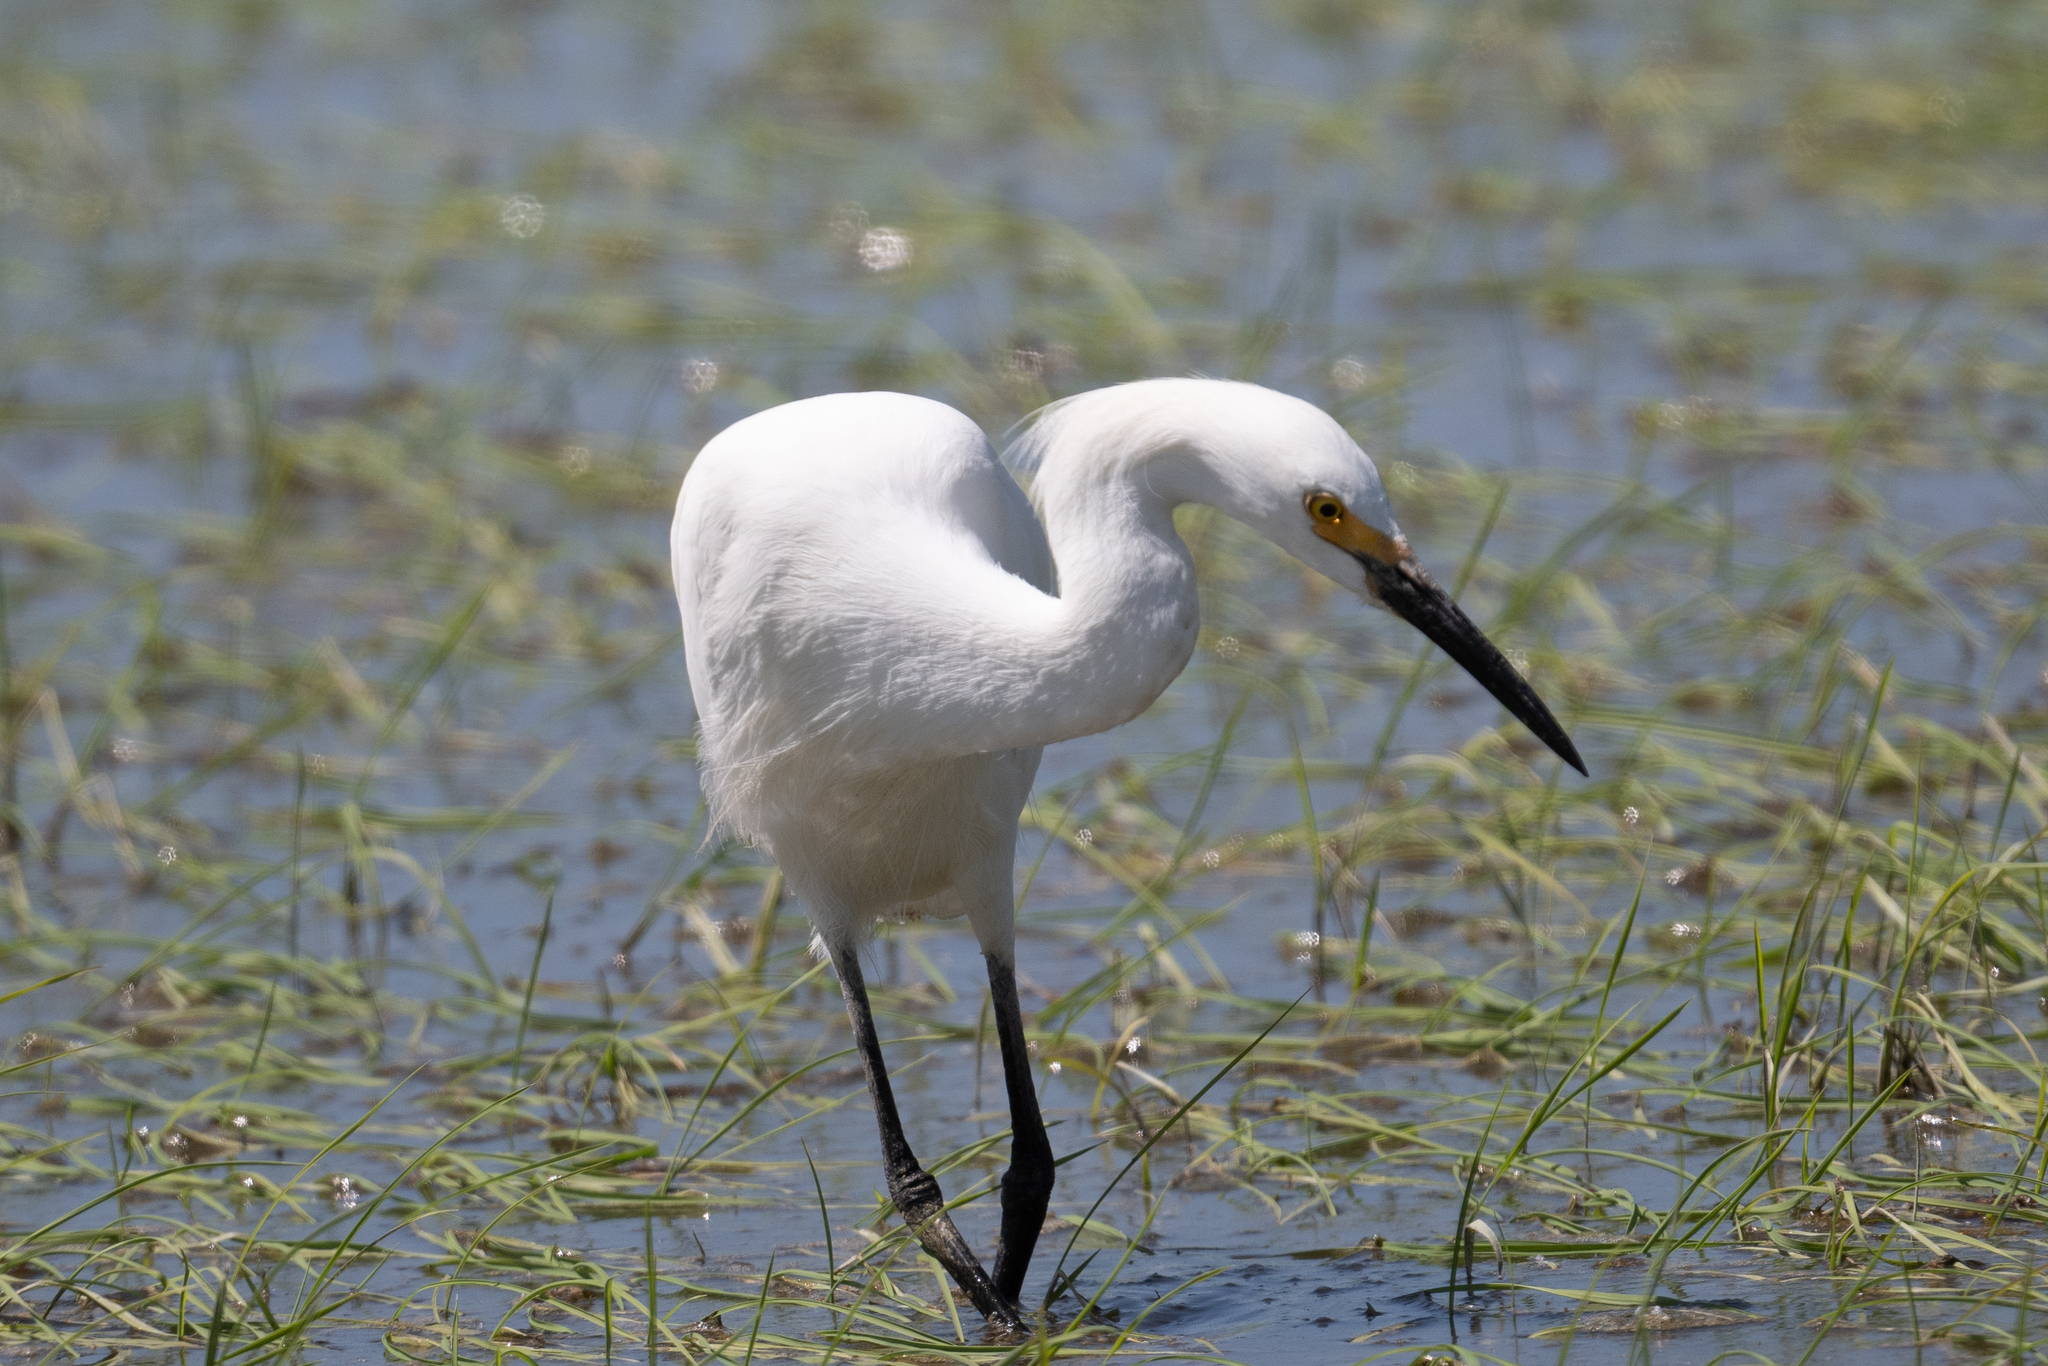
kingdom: Animalia
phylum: Chordata
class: Aves
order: Pelecaniformes
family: Ardeidae
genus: Egretta
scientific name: Egretta thula
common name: Snowy egret
